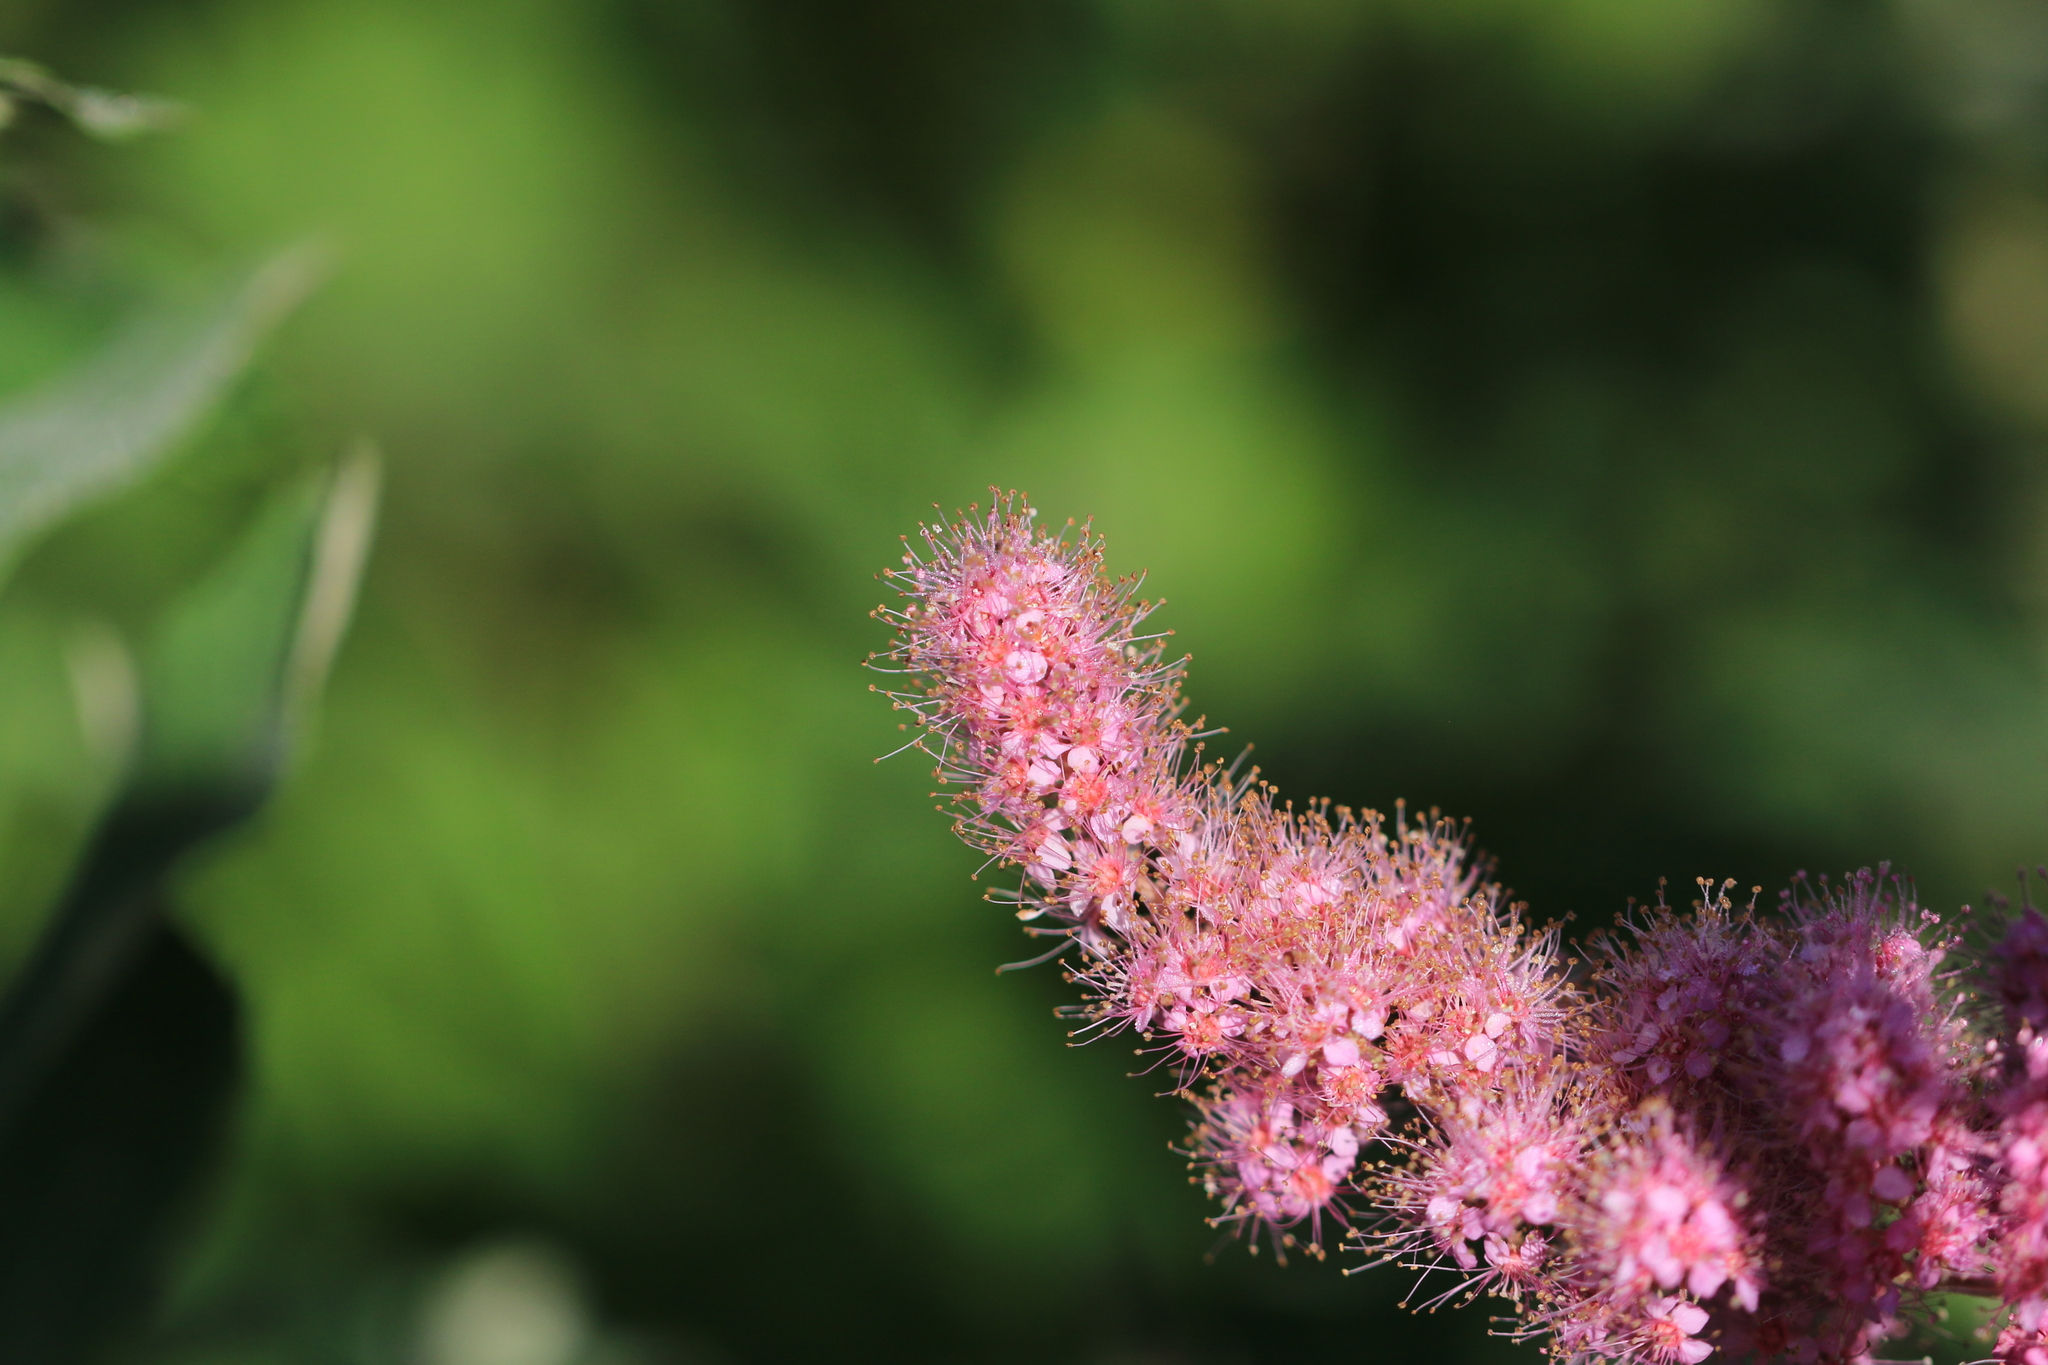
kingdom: Plantae
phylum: Tracheophyta
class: Magnoliopsida
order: Rosales
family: Rosaceae
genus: Spiraea
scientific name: Spiraea douglasii
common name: Steeplebush
